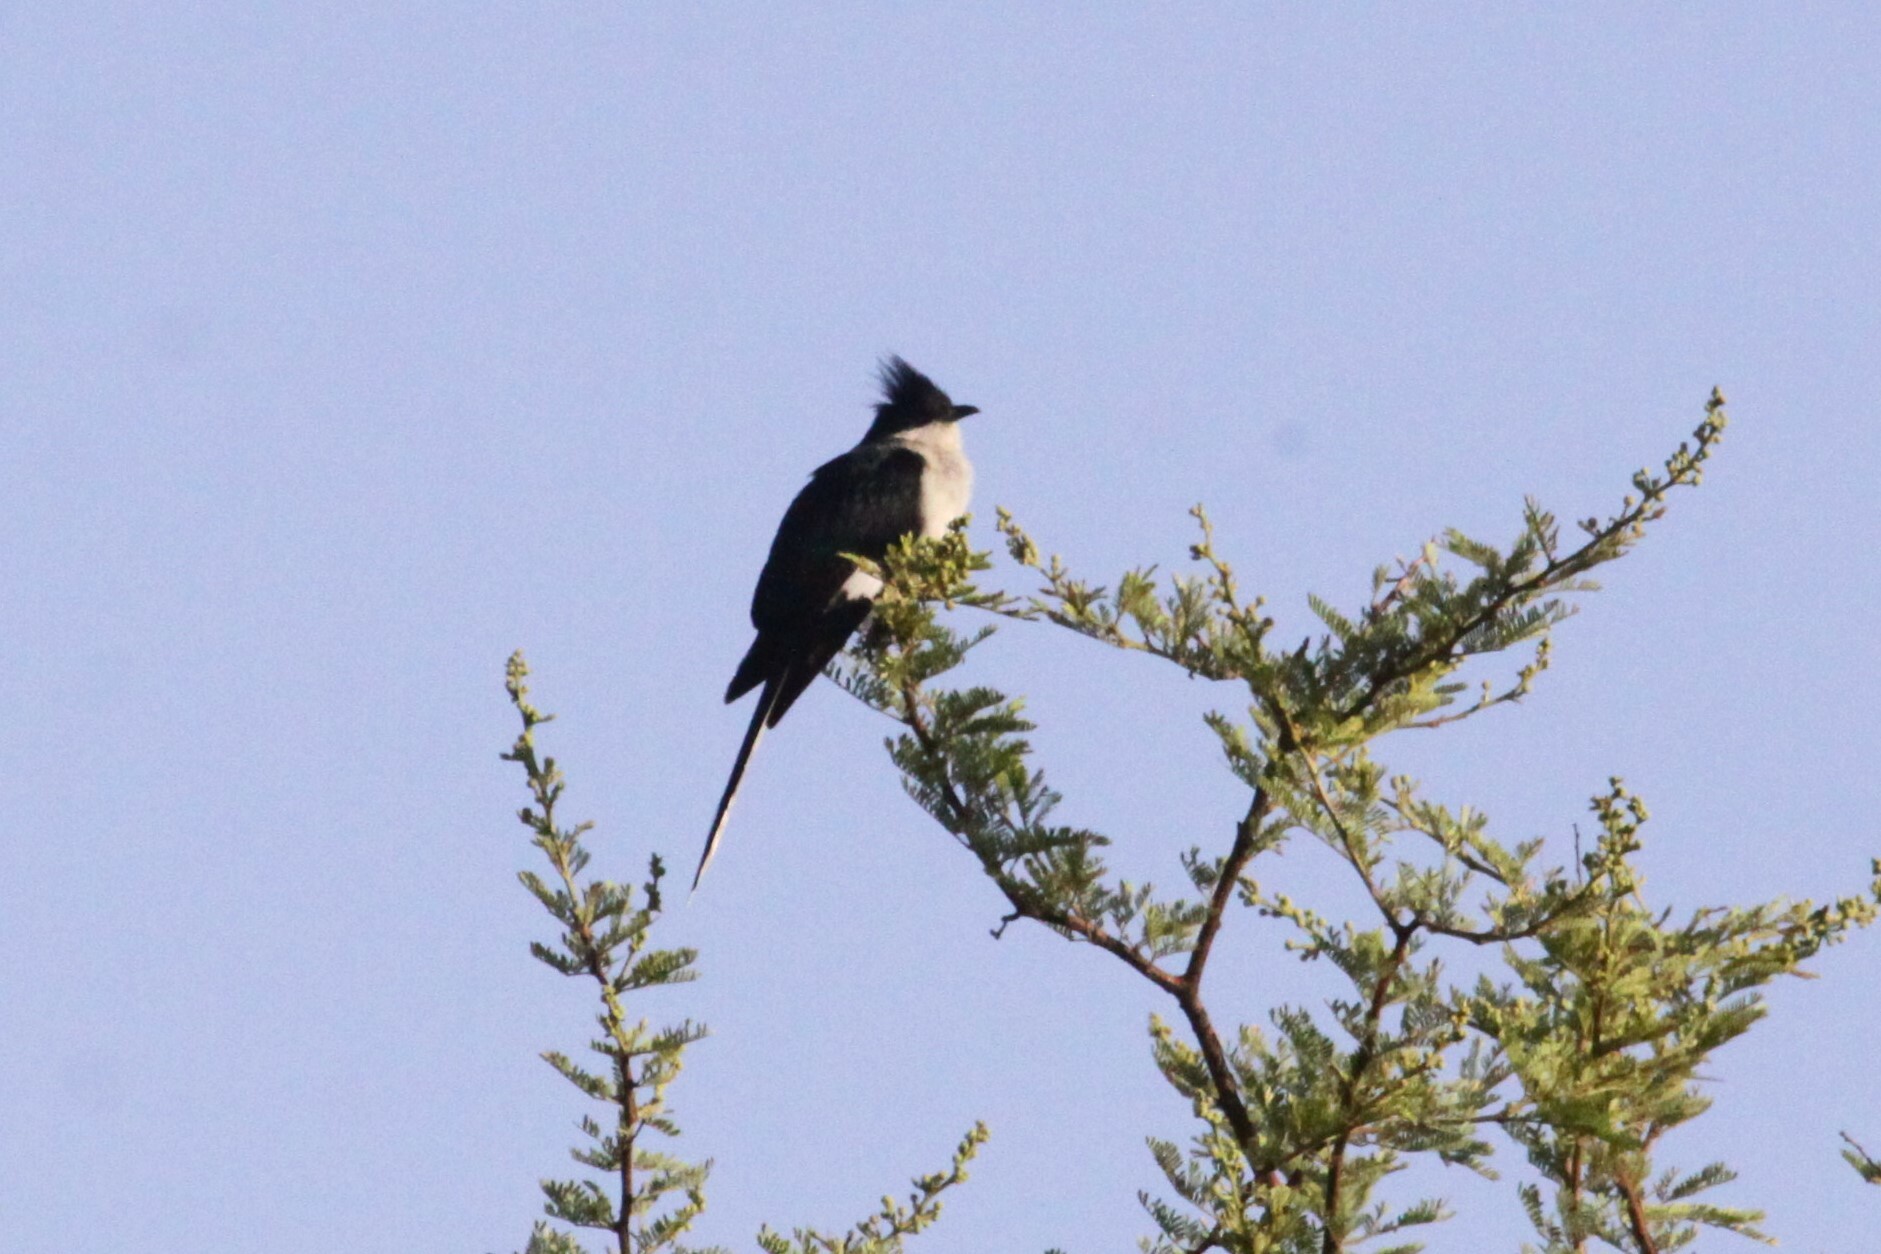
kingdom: Animalia
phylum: Chordata
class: Aves
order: Cuculiformes
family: Cuculidae
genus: Clamator
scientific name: Clamator jacobinus
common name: Jacobin cuckoo
